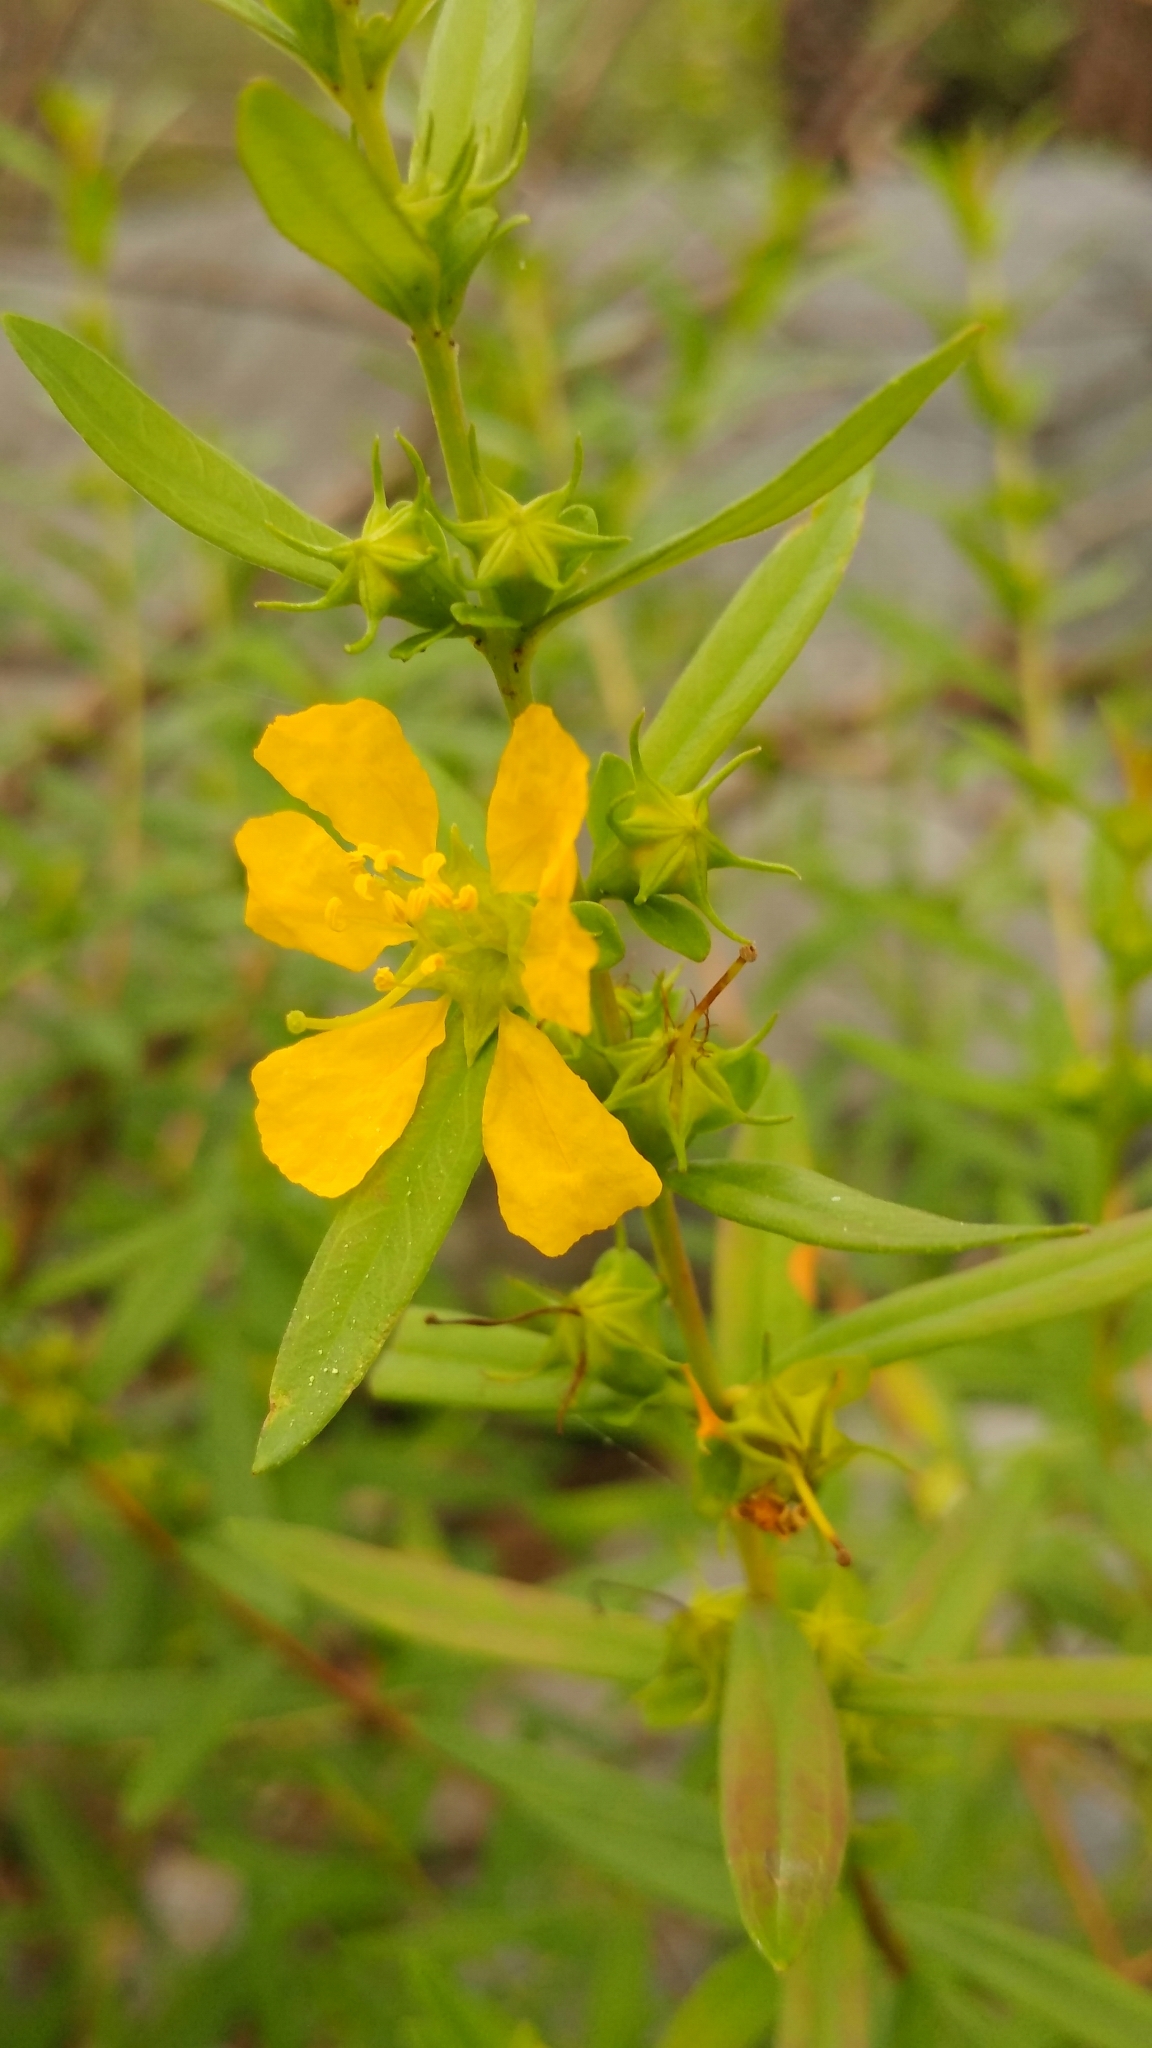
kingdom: Plantae
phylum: Tracheophyta
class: Magnoliopsida
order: Myrtales
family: Lythraceae
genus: Heimia
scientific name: Heimia salicifolia
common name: Willow-leaf heimia
